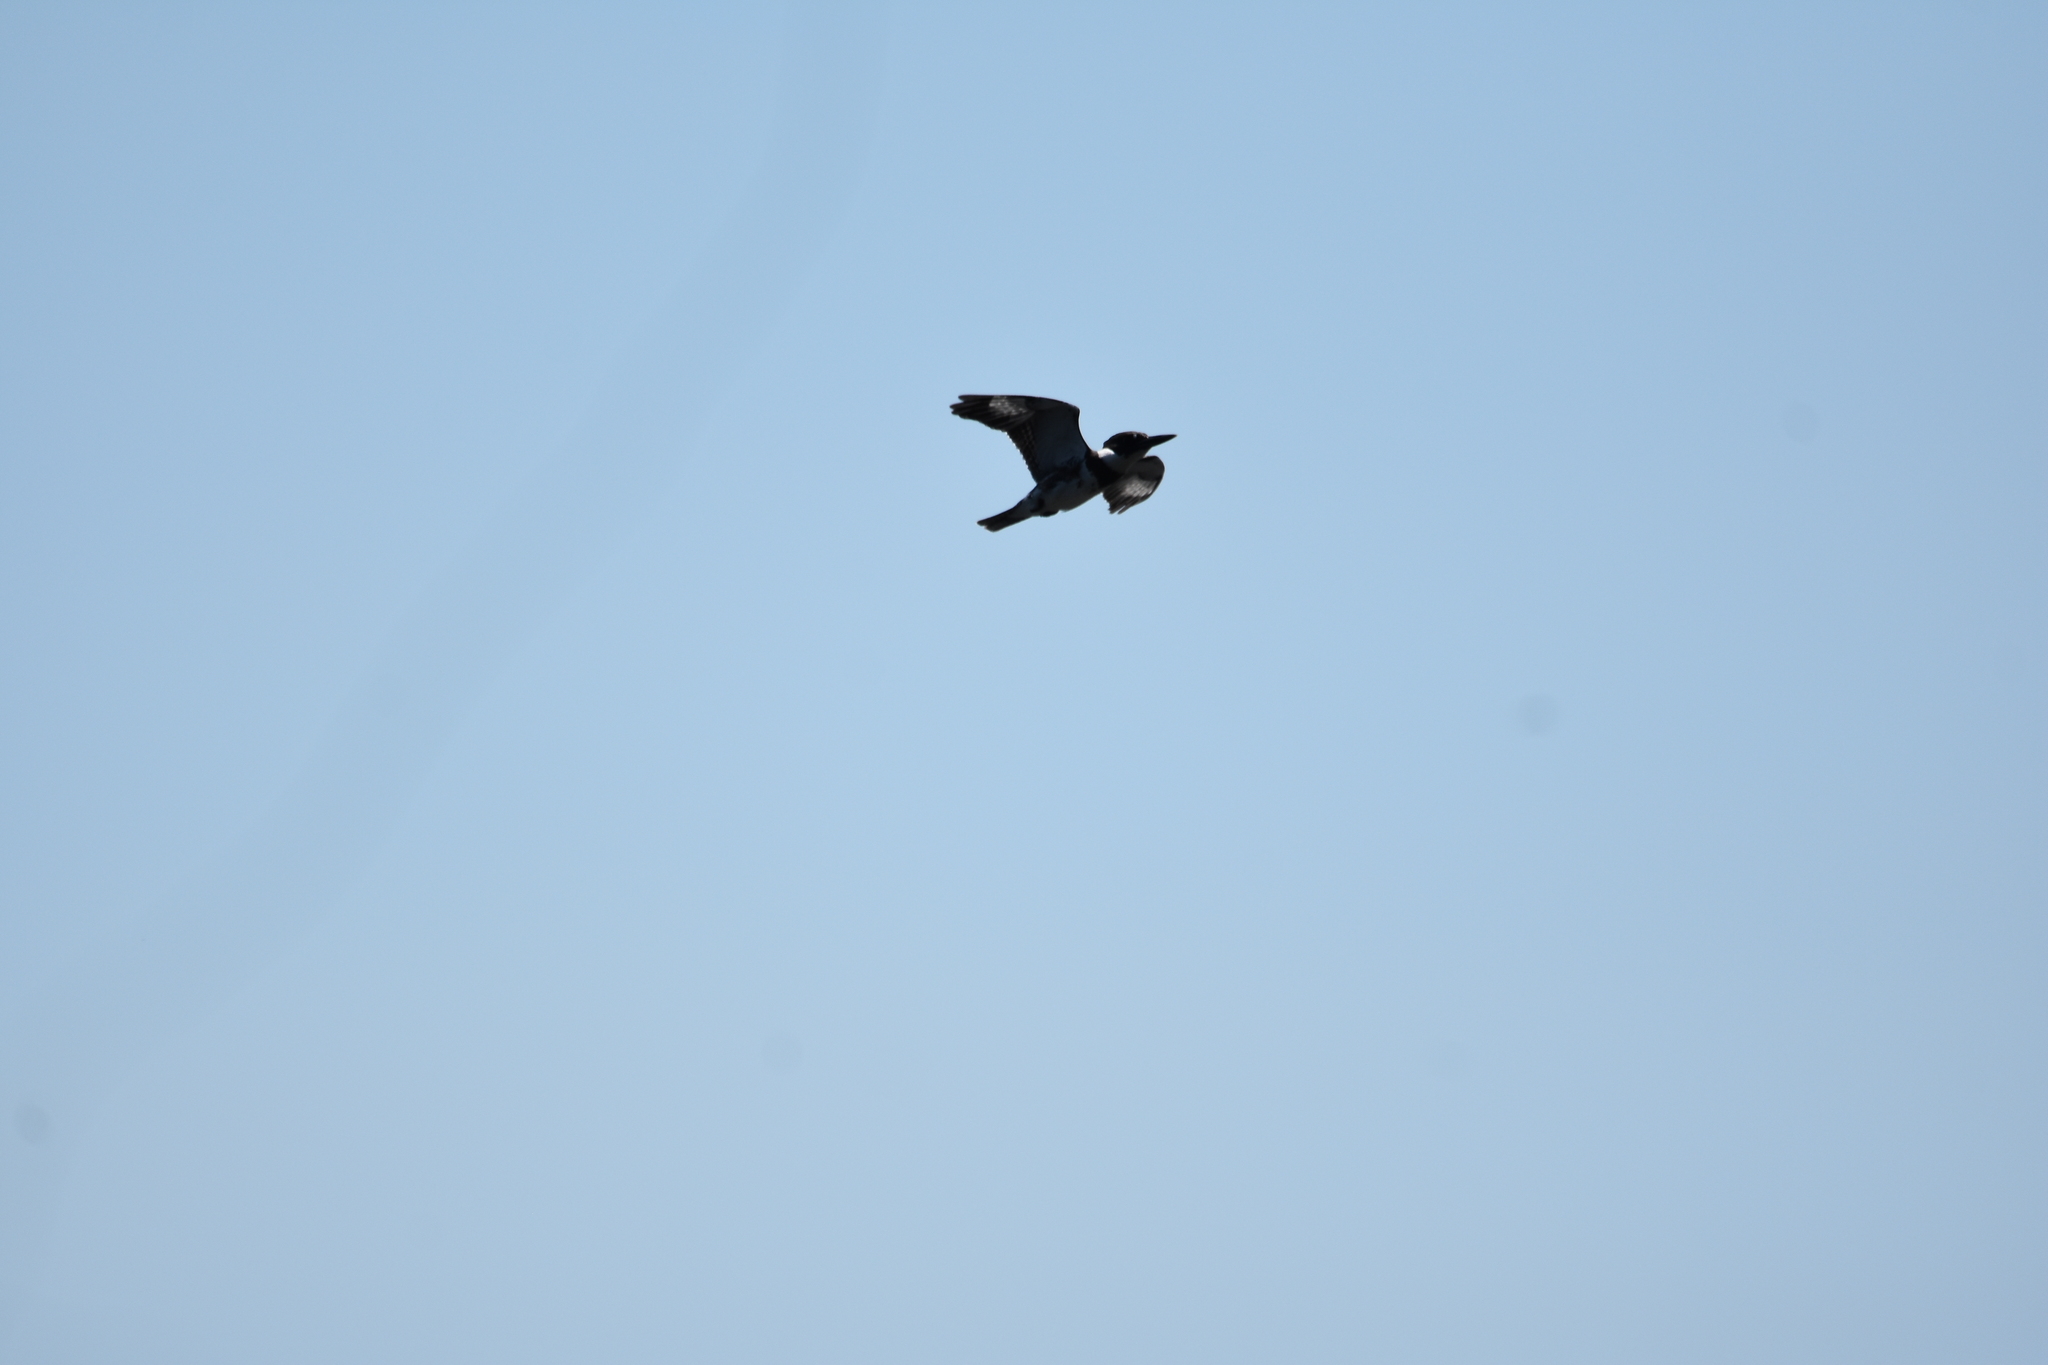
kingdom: Animalia
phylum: Chordata
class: Aves
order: Coraciiformes
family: Alcedinidae
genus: Megaceryle
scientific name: Megaceryle alcyon
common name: Belted kingfisher
